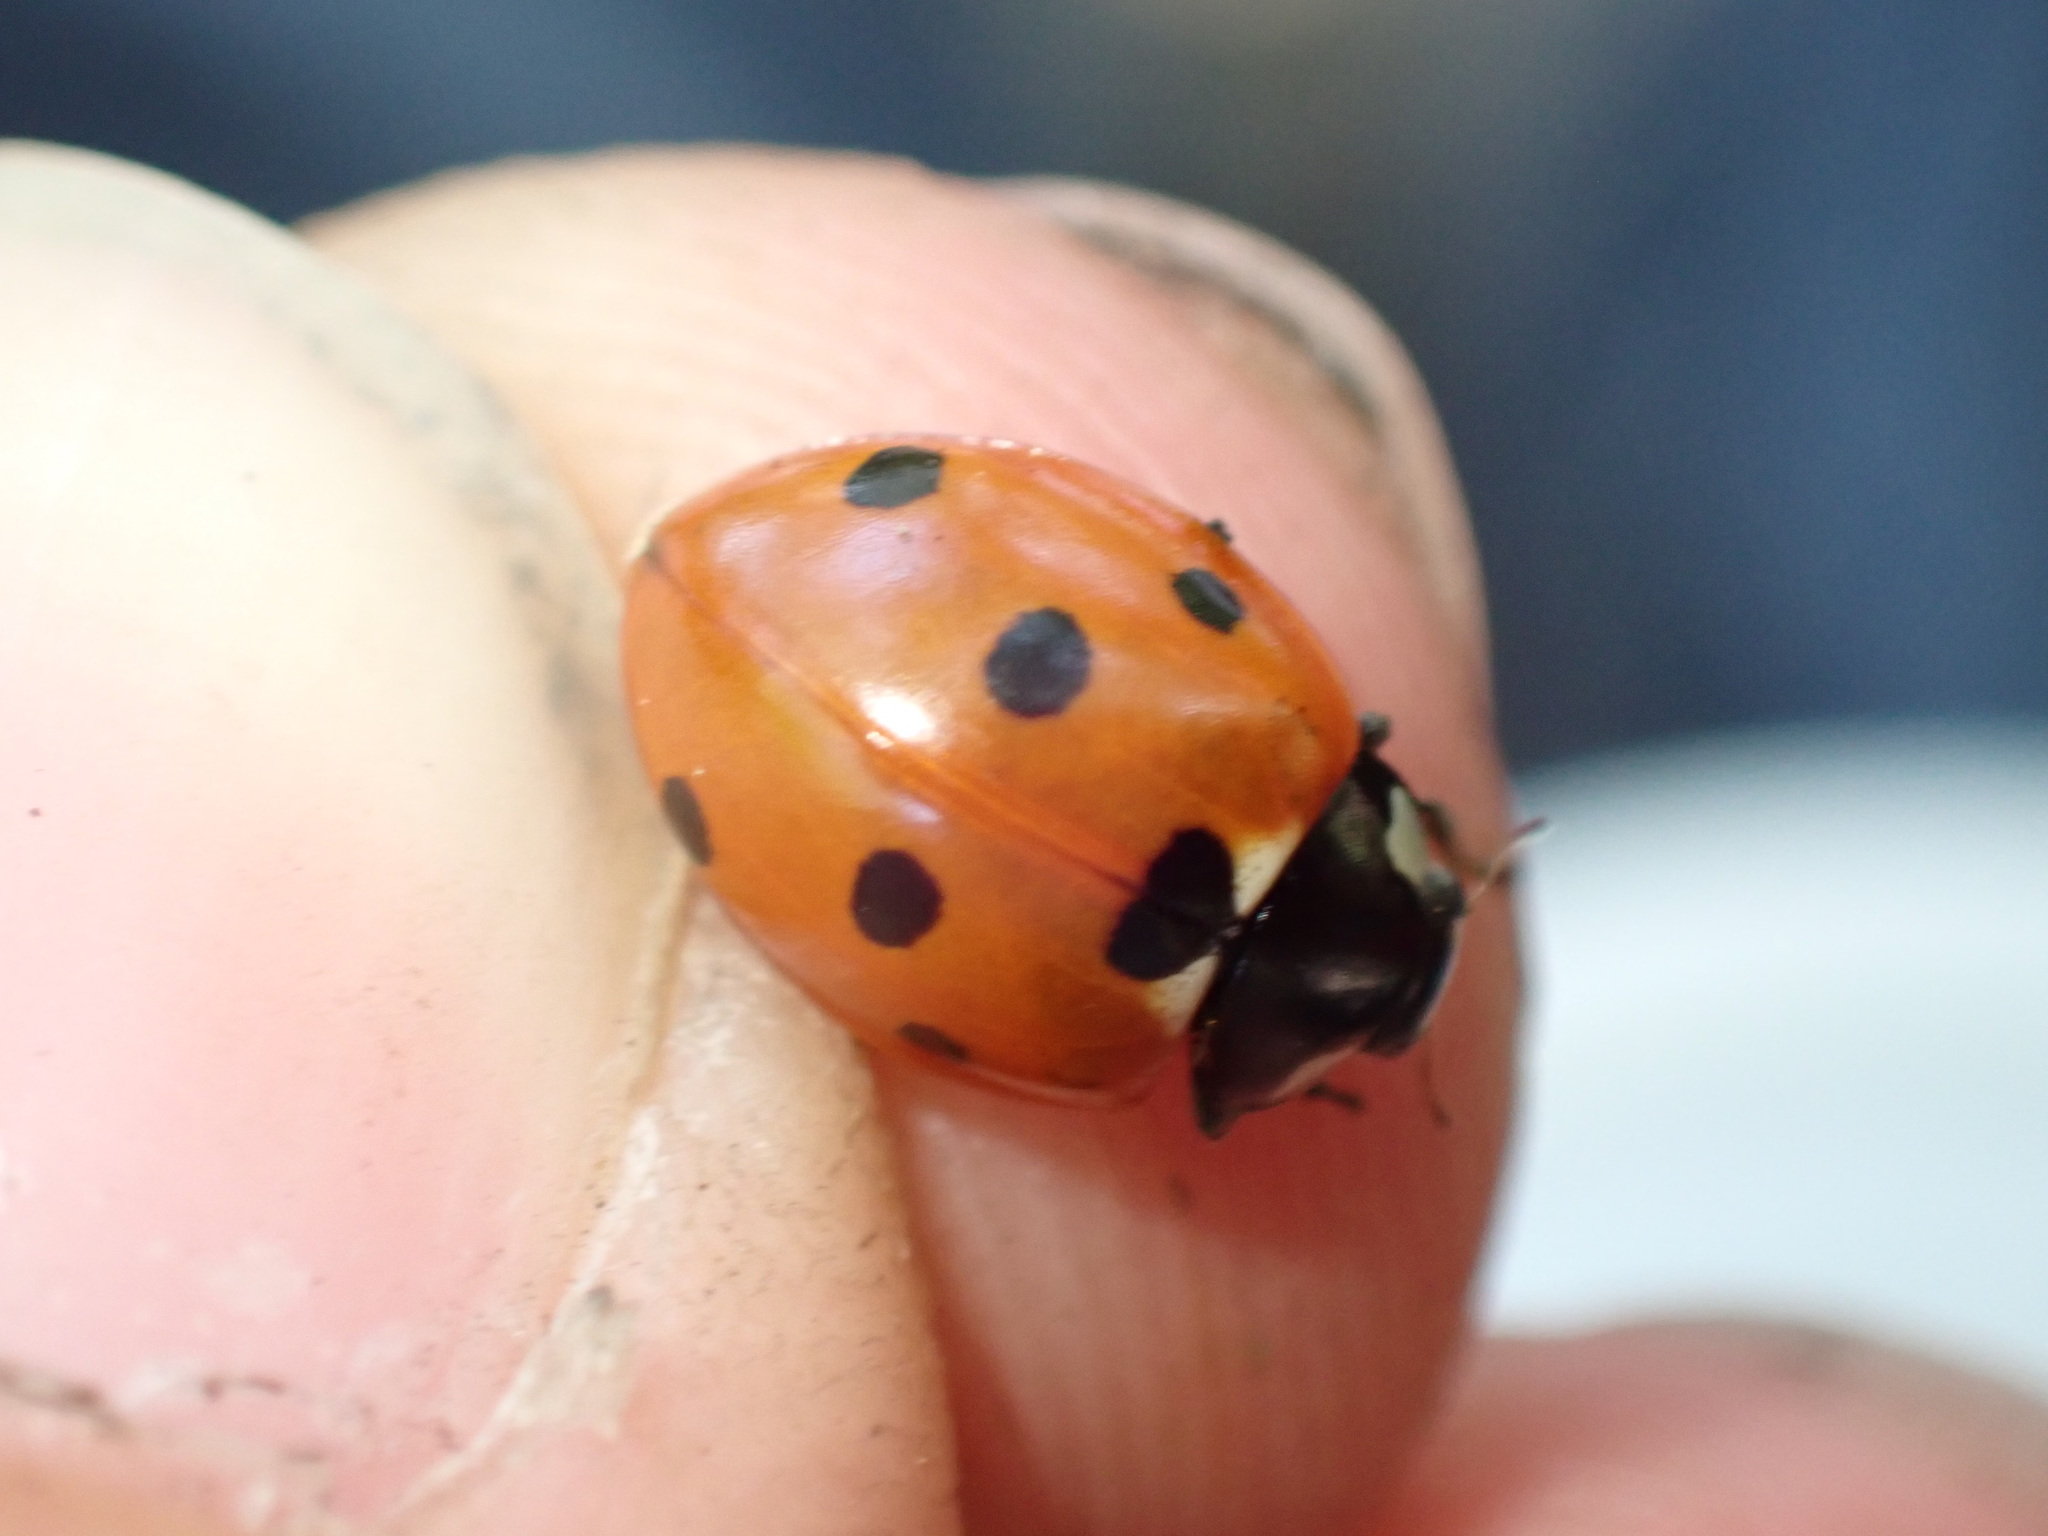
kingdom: Animalia
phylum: Arthropoda
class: Insecta
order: Coleoptera
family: Coccinellidae
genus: Coccinella
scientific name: Coccinella septempunctata
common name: Sevenspotted lady beetle
